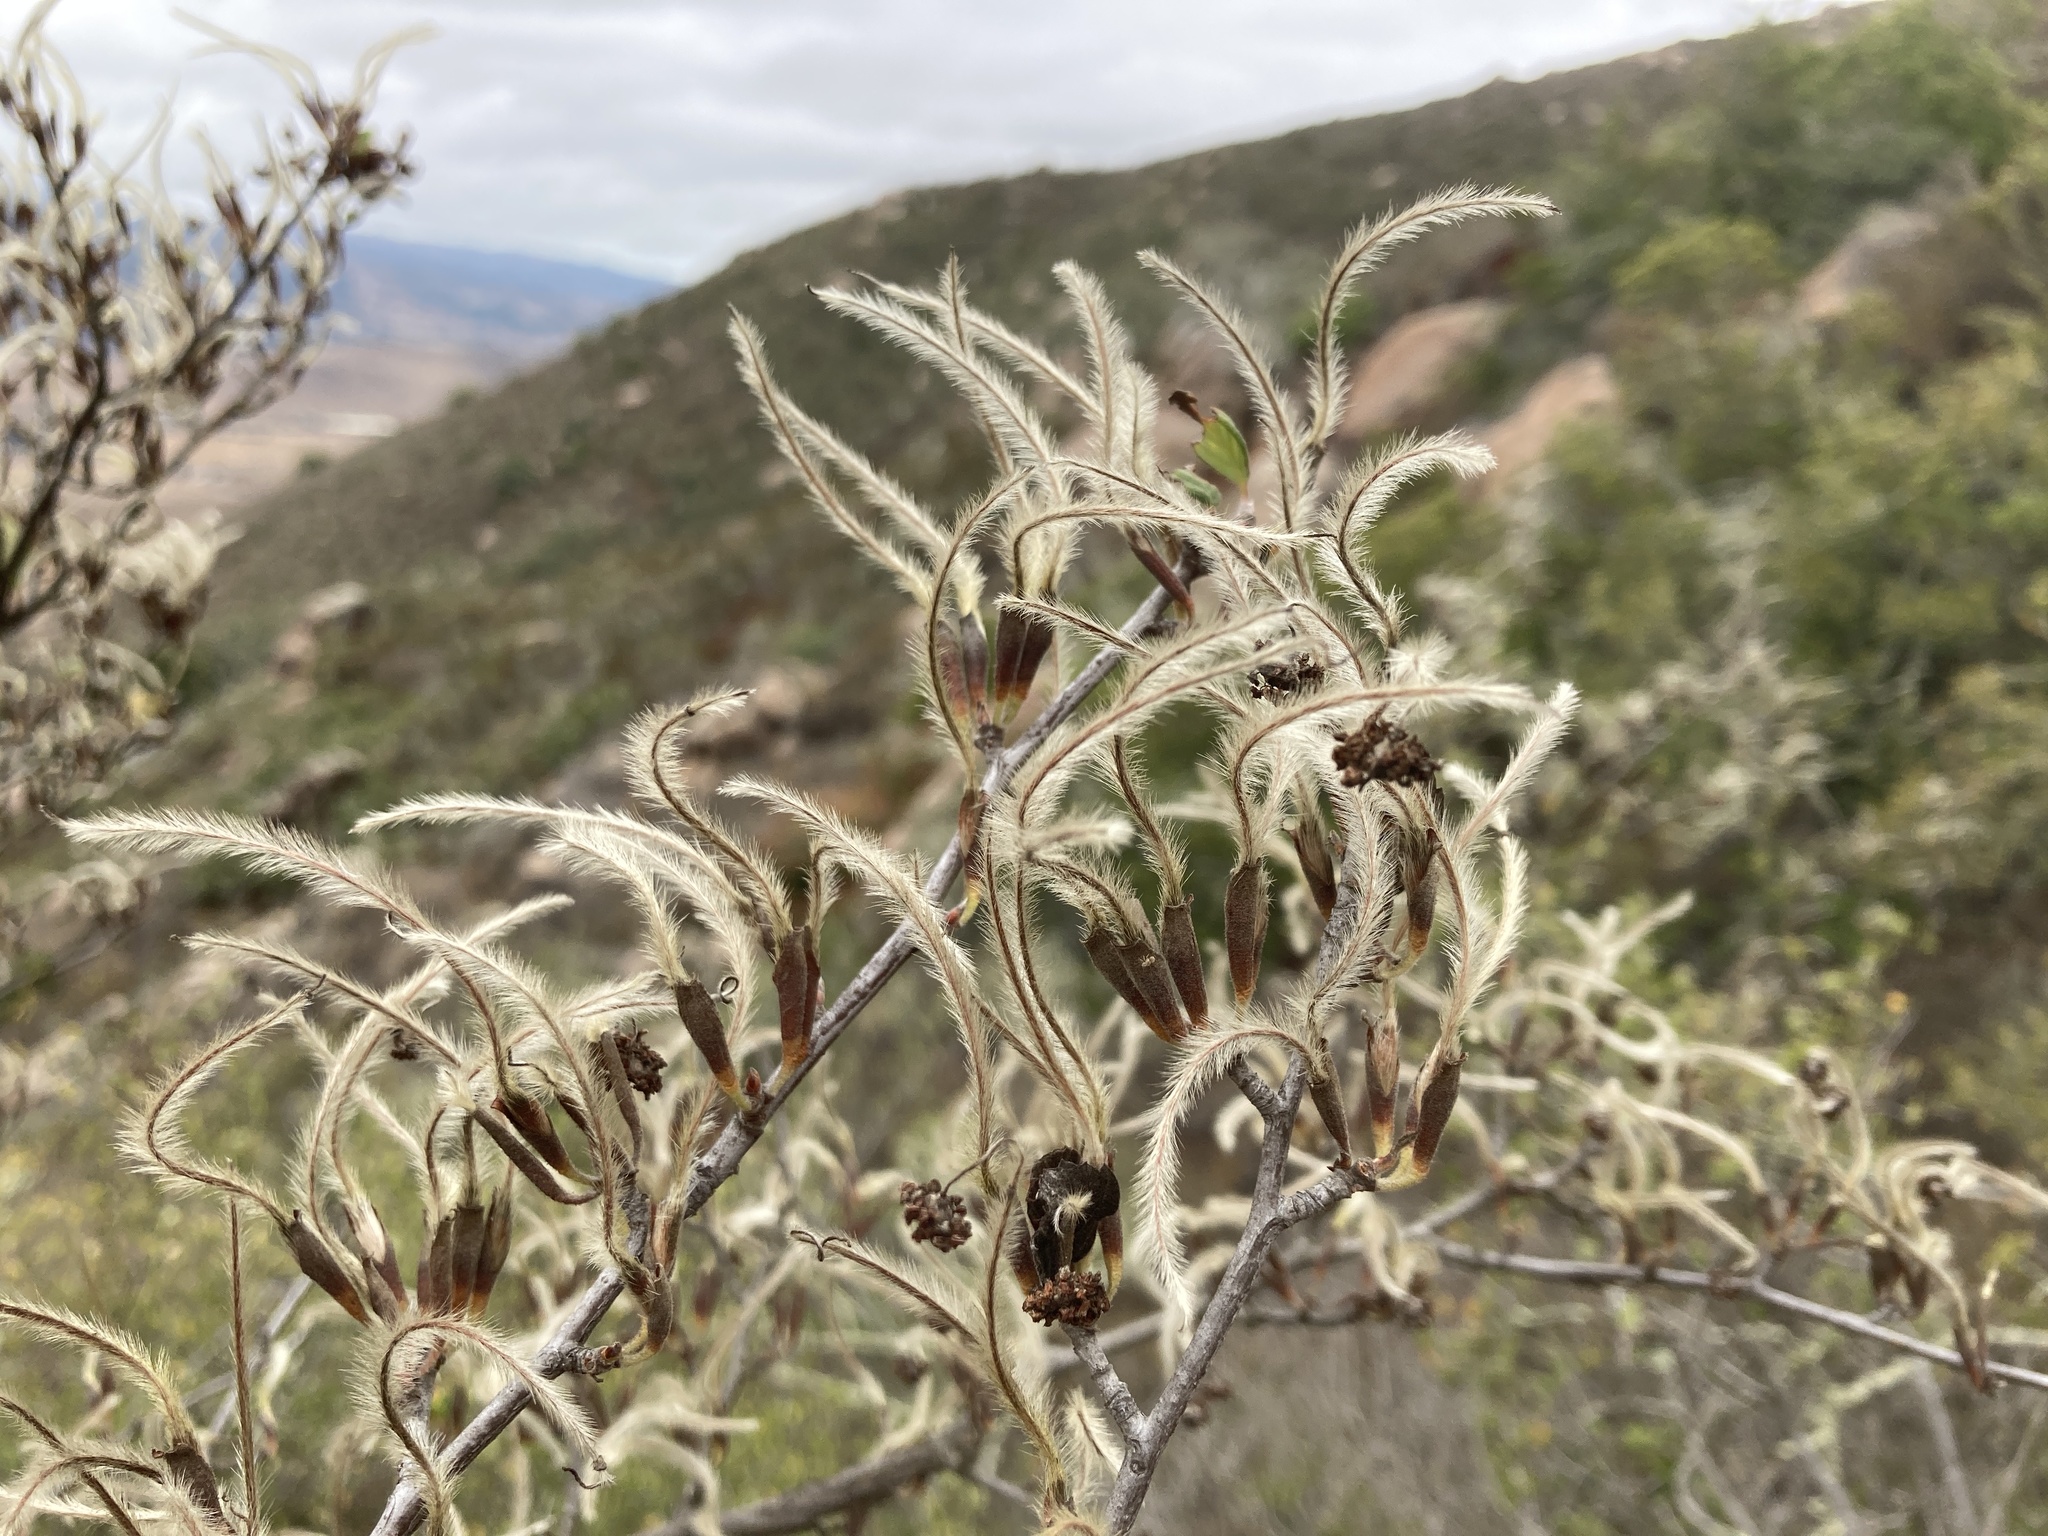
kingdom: Plantae
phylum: Tracheophyta
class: Magnoliopsida
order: Rosales
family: Rosaceae
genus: Cercocarpus
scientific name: Cercocarpus betuloides
